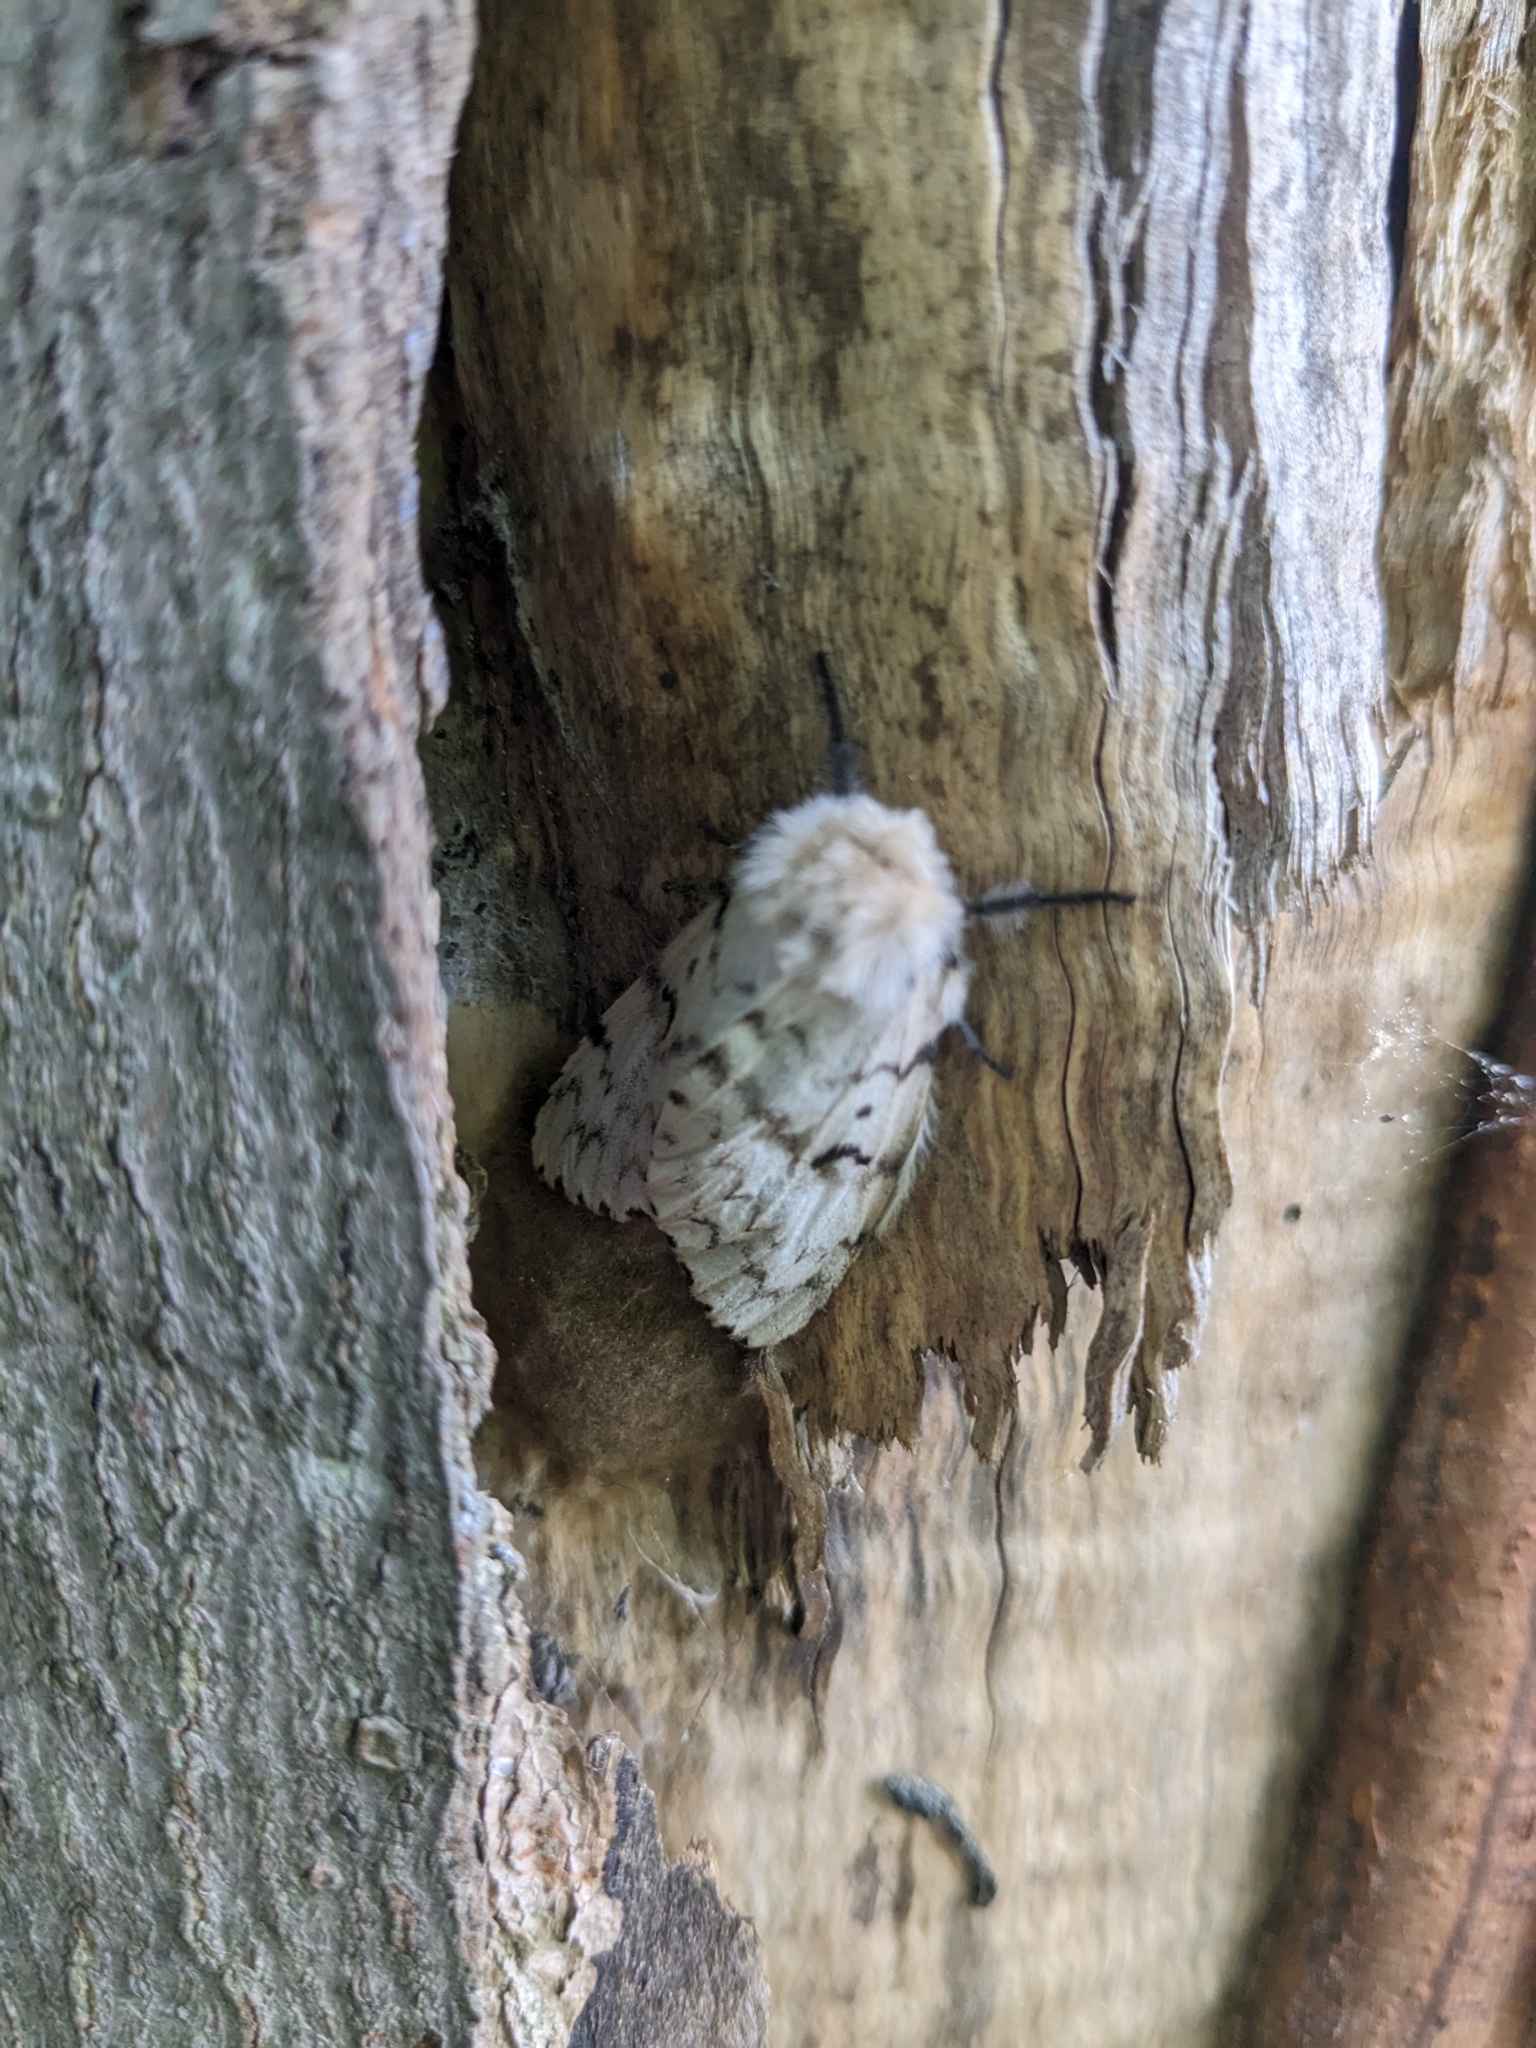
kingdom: Animalia
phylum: Arthropoda
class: Insecta
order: Lepidoptera
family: Erebidae
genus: Lymantria
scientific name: Lymantria dispar
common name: Gypsy moth
